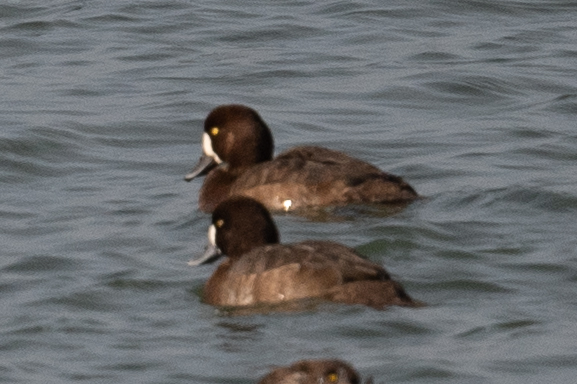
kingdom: Animalia
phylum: Chordata
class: Aves
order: Anseriformes
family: Anatidae
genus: Aythya
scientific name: Aythya marila
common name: Greater scaup
